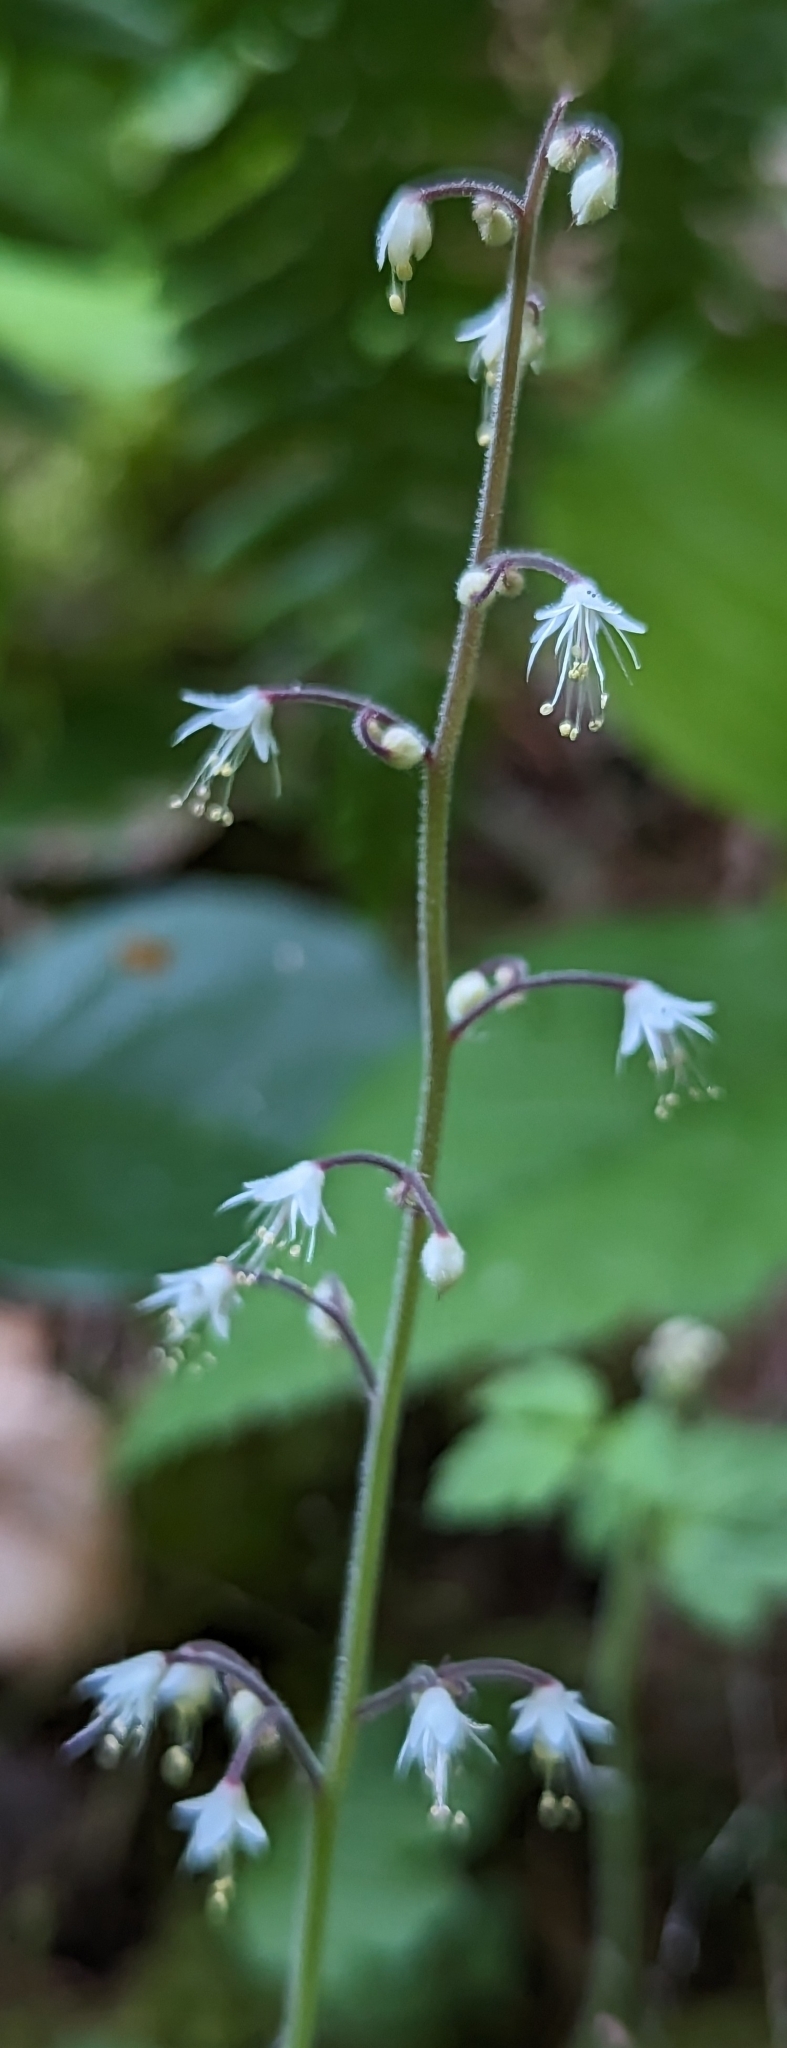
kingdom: Plantae
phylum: Tracheophyta
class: Magnoliopsida
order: Saxifragales
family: Saxifragaceae
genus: Tiarella
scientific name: Tiarella trifoliata
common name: Sugar-scoop
